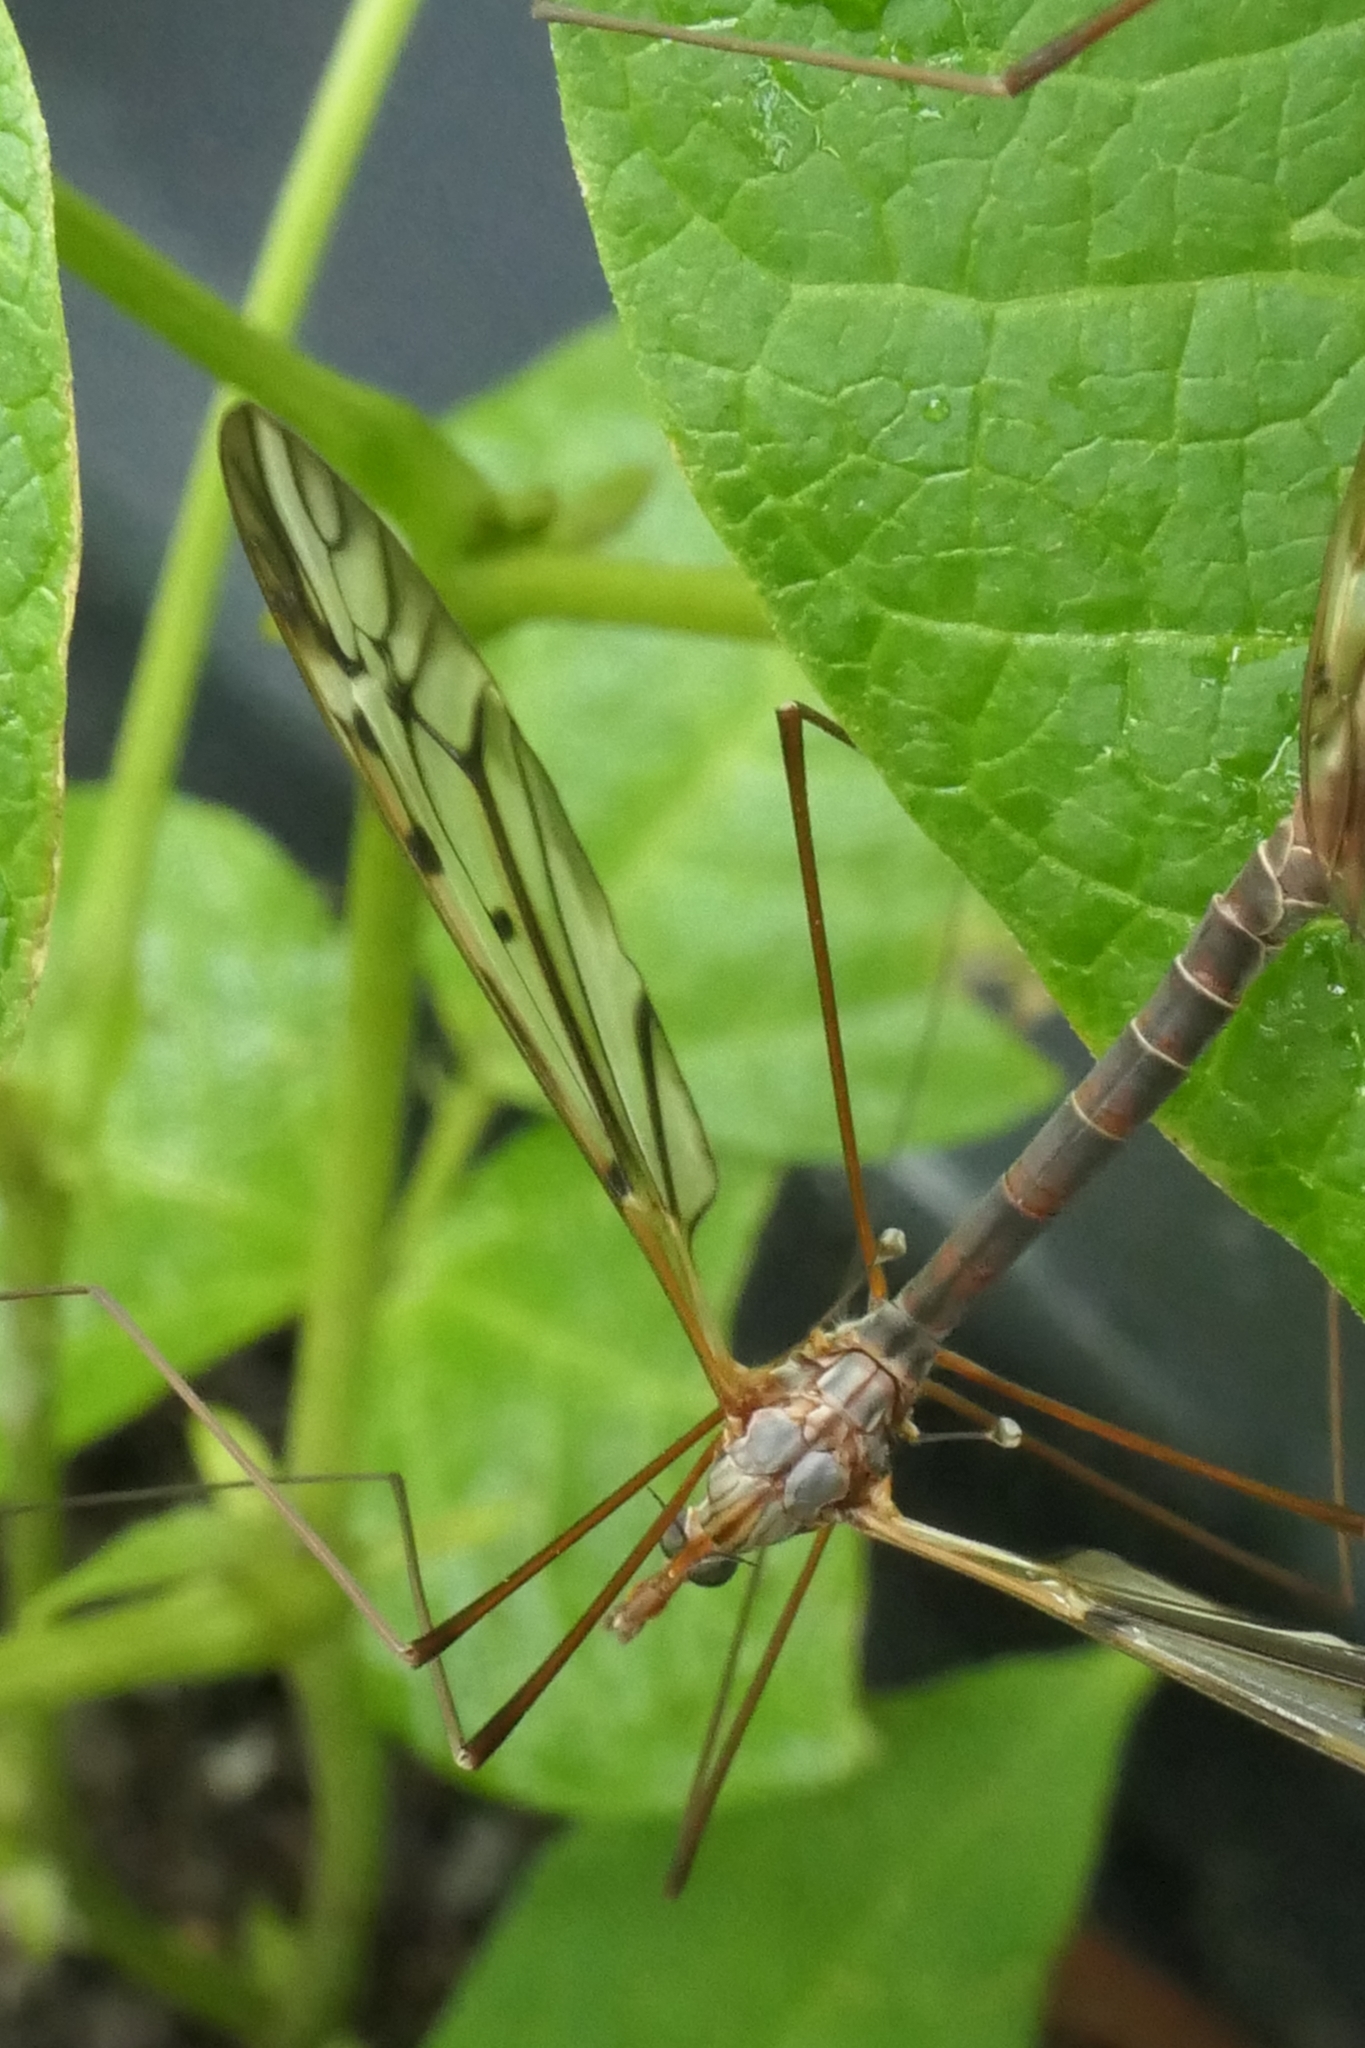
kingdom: Animalia
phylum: Arthropoda
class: Insecta
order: Diptera
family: Tipulidae
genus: Zelandotipula
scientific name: Zelandotipula novarae
